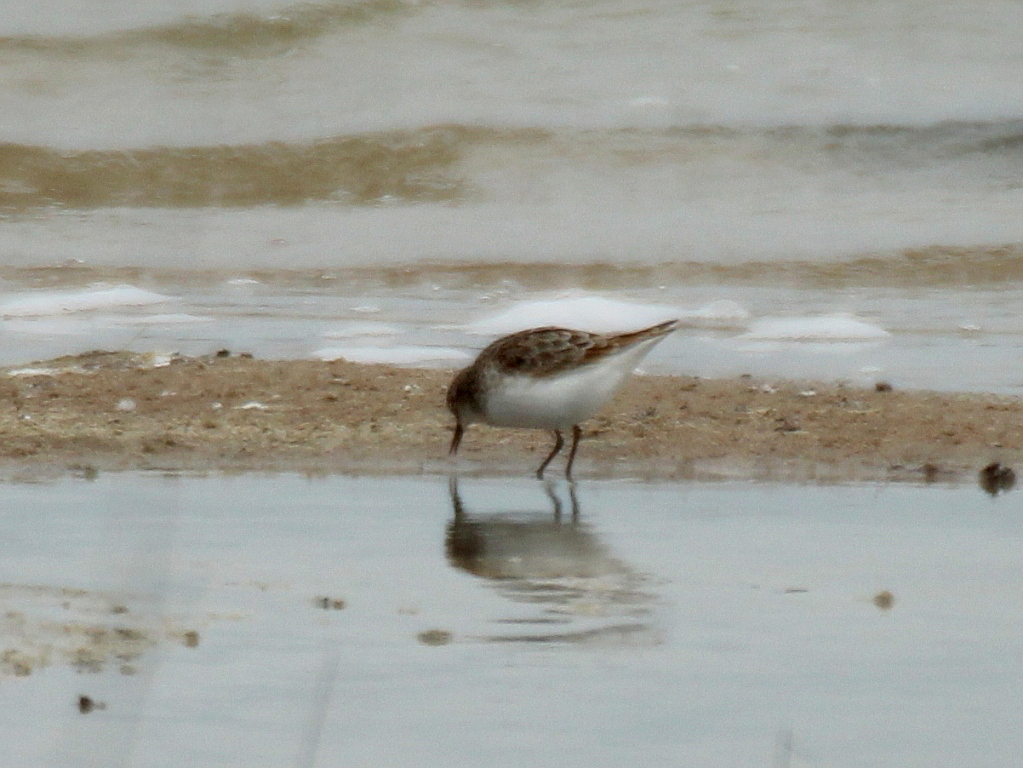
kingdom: Animalia
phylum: Chordata
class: Aves
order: Charadriiformes
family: Scolopacidae
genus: Calidris
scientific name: Calidris minuta
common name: Little stint
